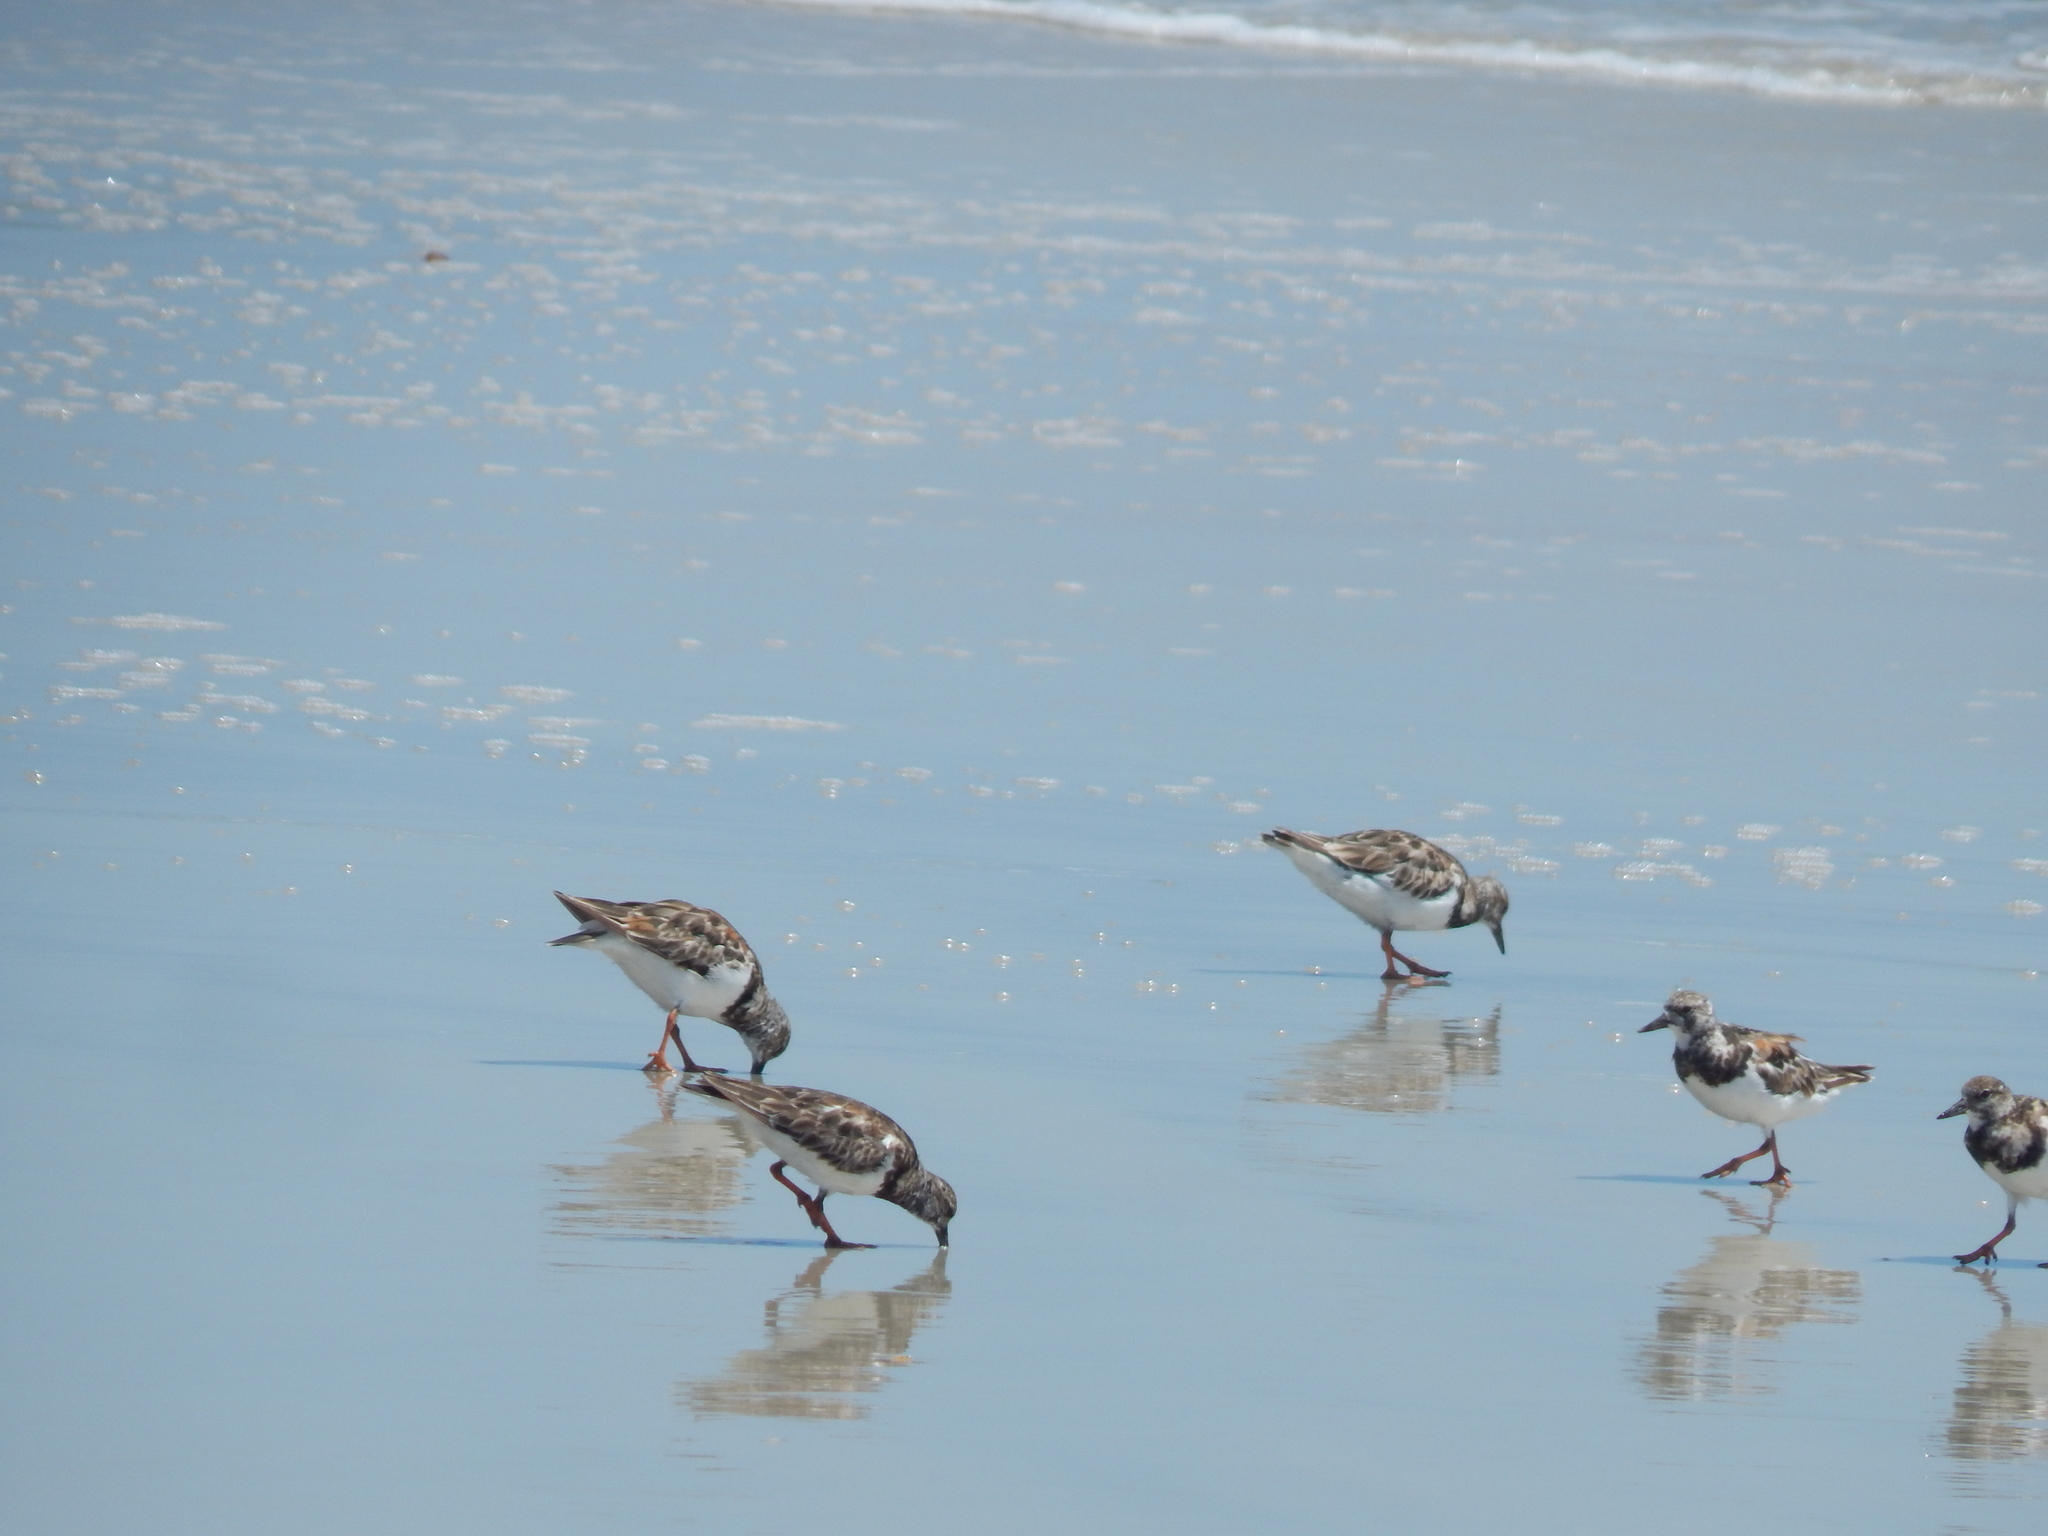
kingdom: Animalia
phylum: Chordata
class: Aves
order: Charadriiformes
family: Scolopacidae
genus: Arenaria
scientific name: Arenaria interpres
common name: Ruddy turnstone
